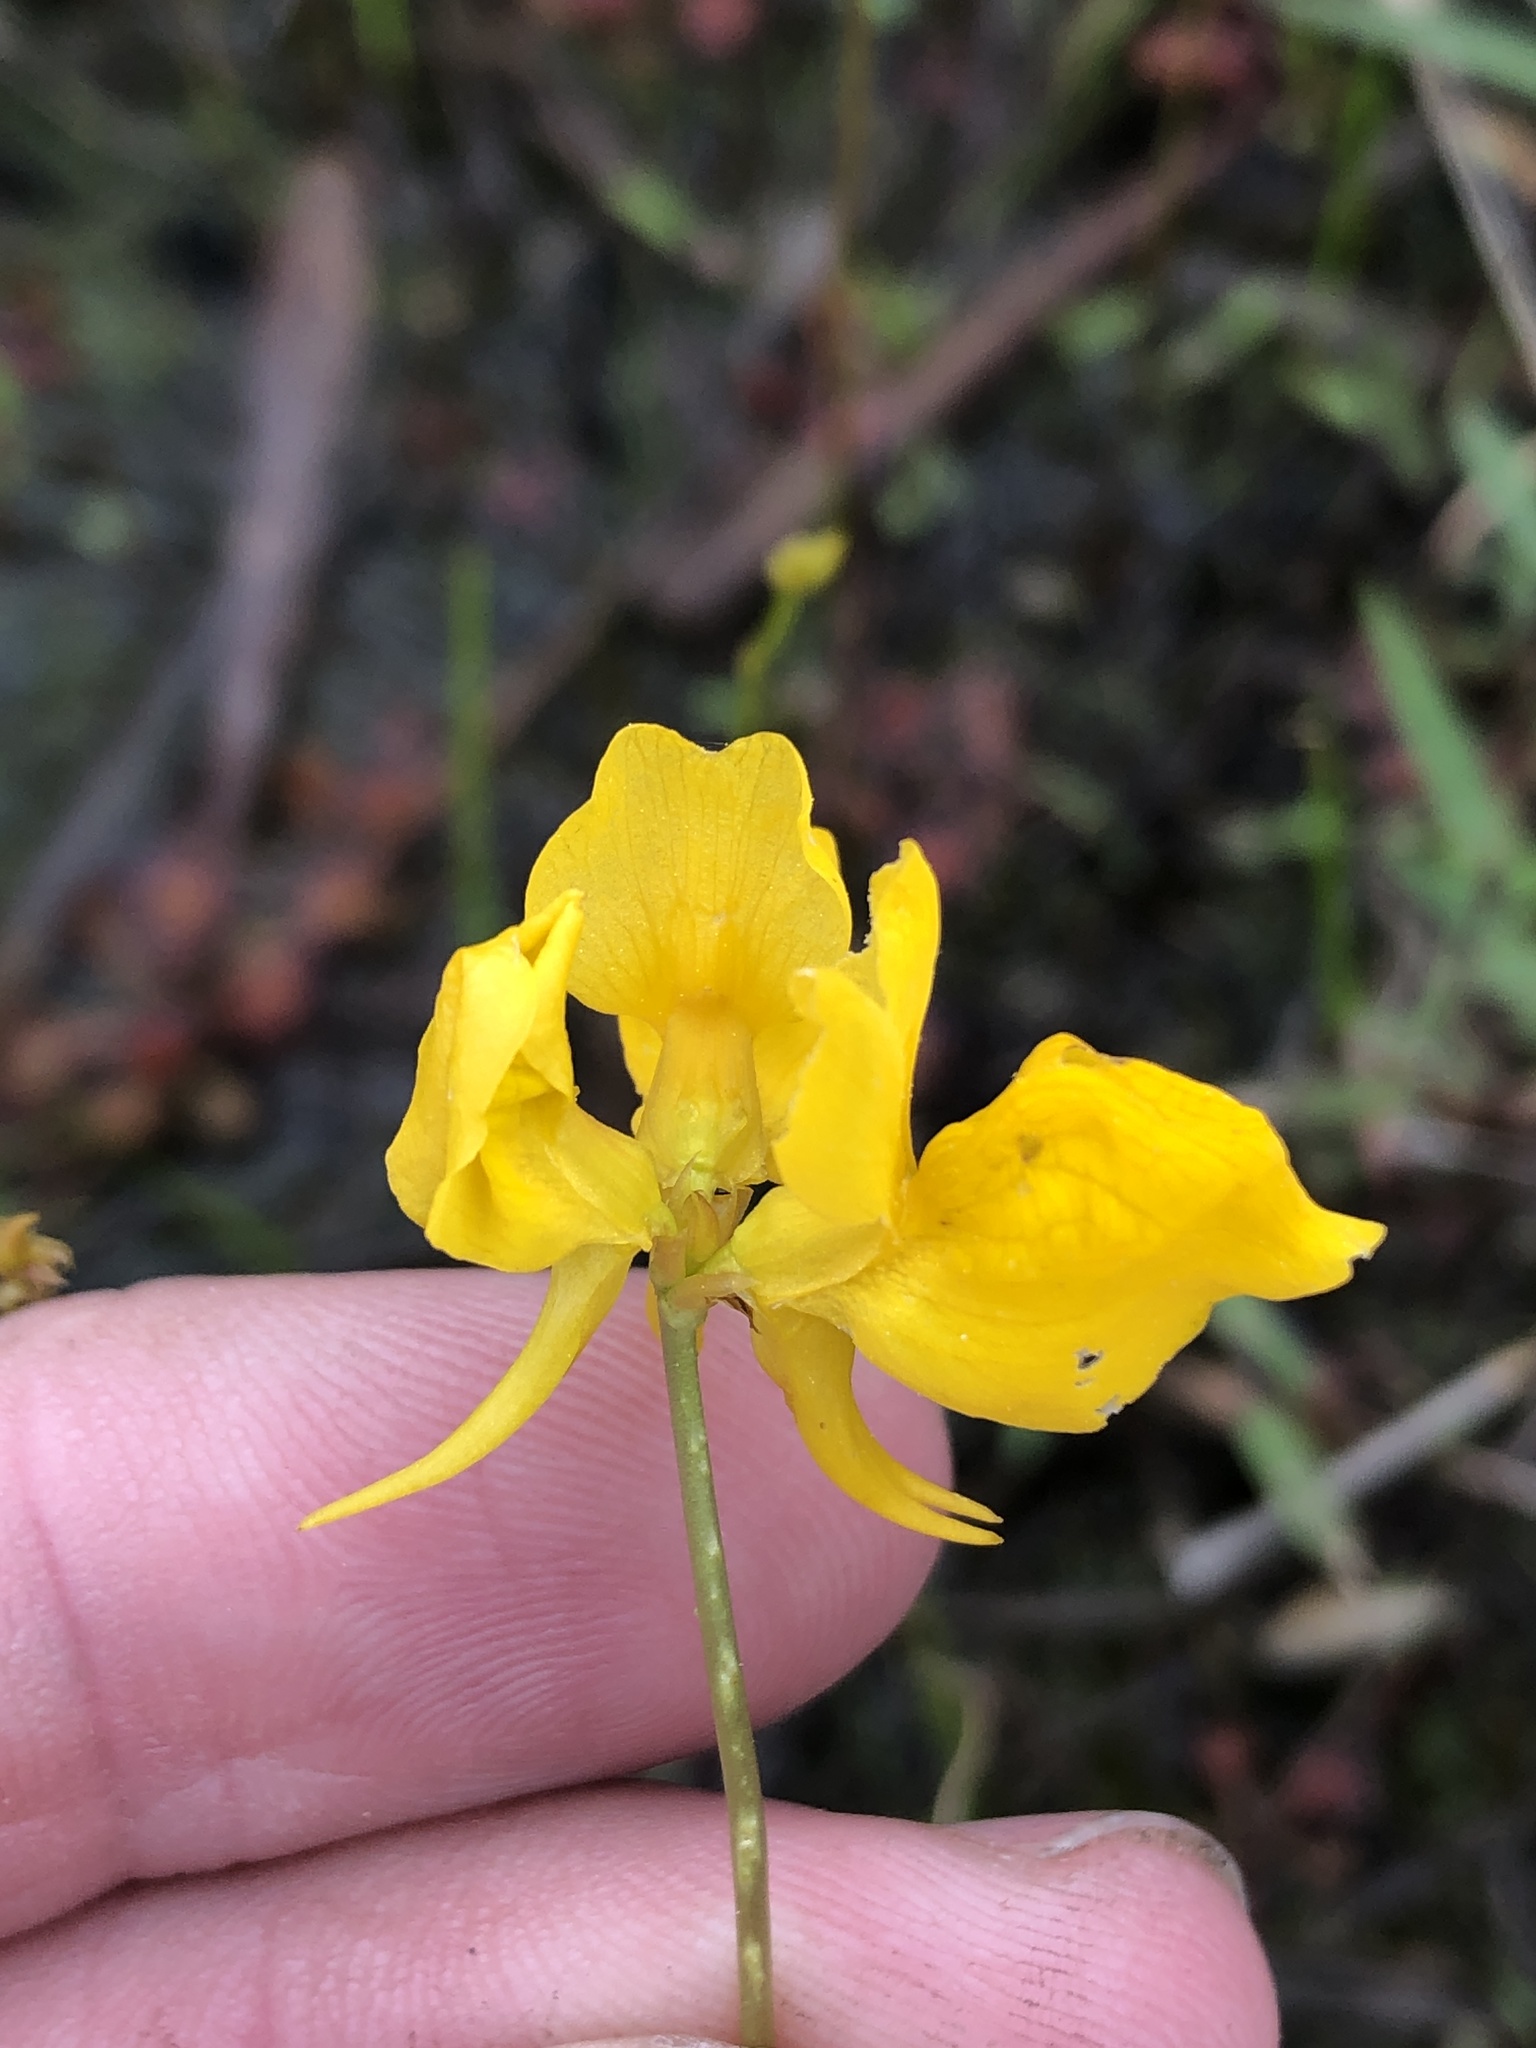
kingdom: Plantae
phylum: Tracheophyta
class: Magnoliopsida
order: Lamiales
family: Lentibulariaceae
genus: Utricularia
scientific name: Utricularia cornuta
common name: Horned bladderwort
